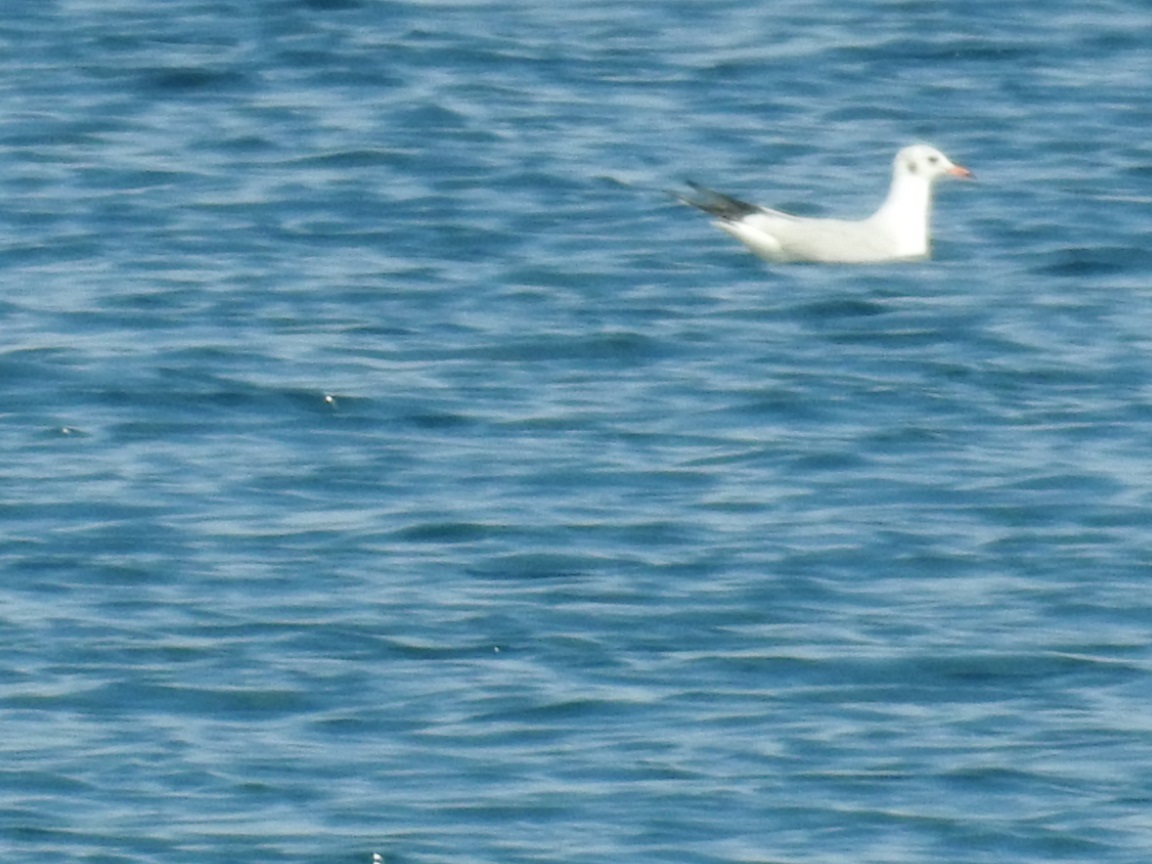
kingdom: Animalia
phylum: Chordata
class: Aves
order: Charadriiformes
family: Laridae
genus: Chroicocephalus
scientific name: Chroicocephalus ridibundus
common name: Black-headed gull
